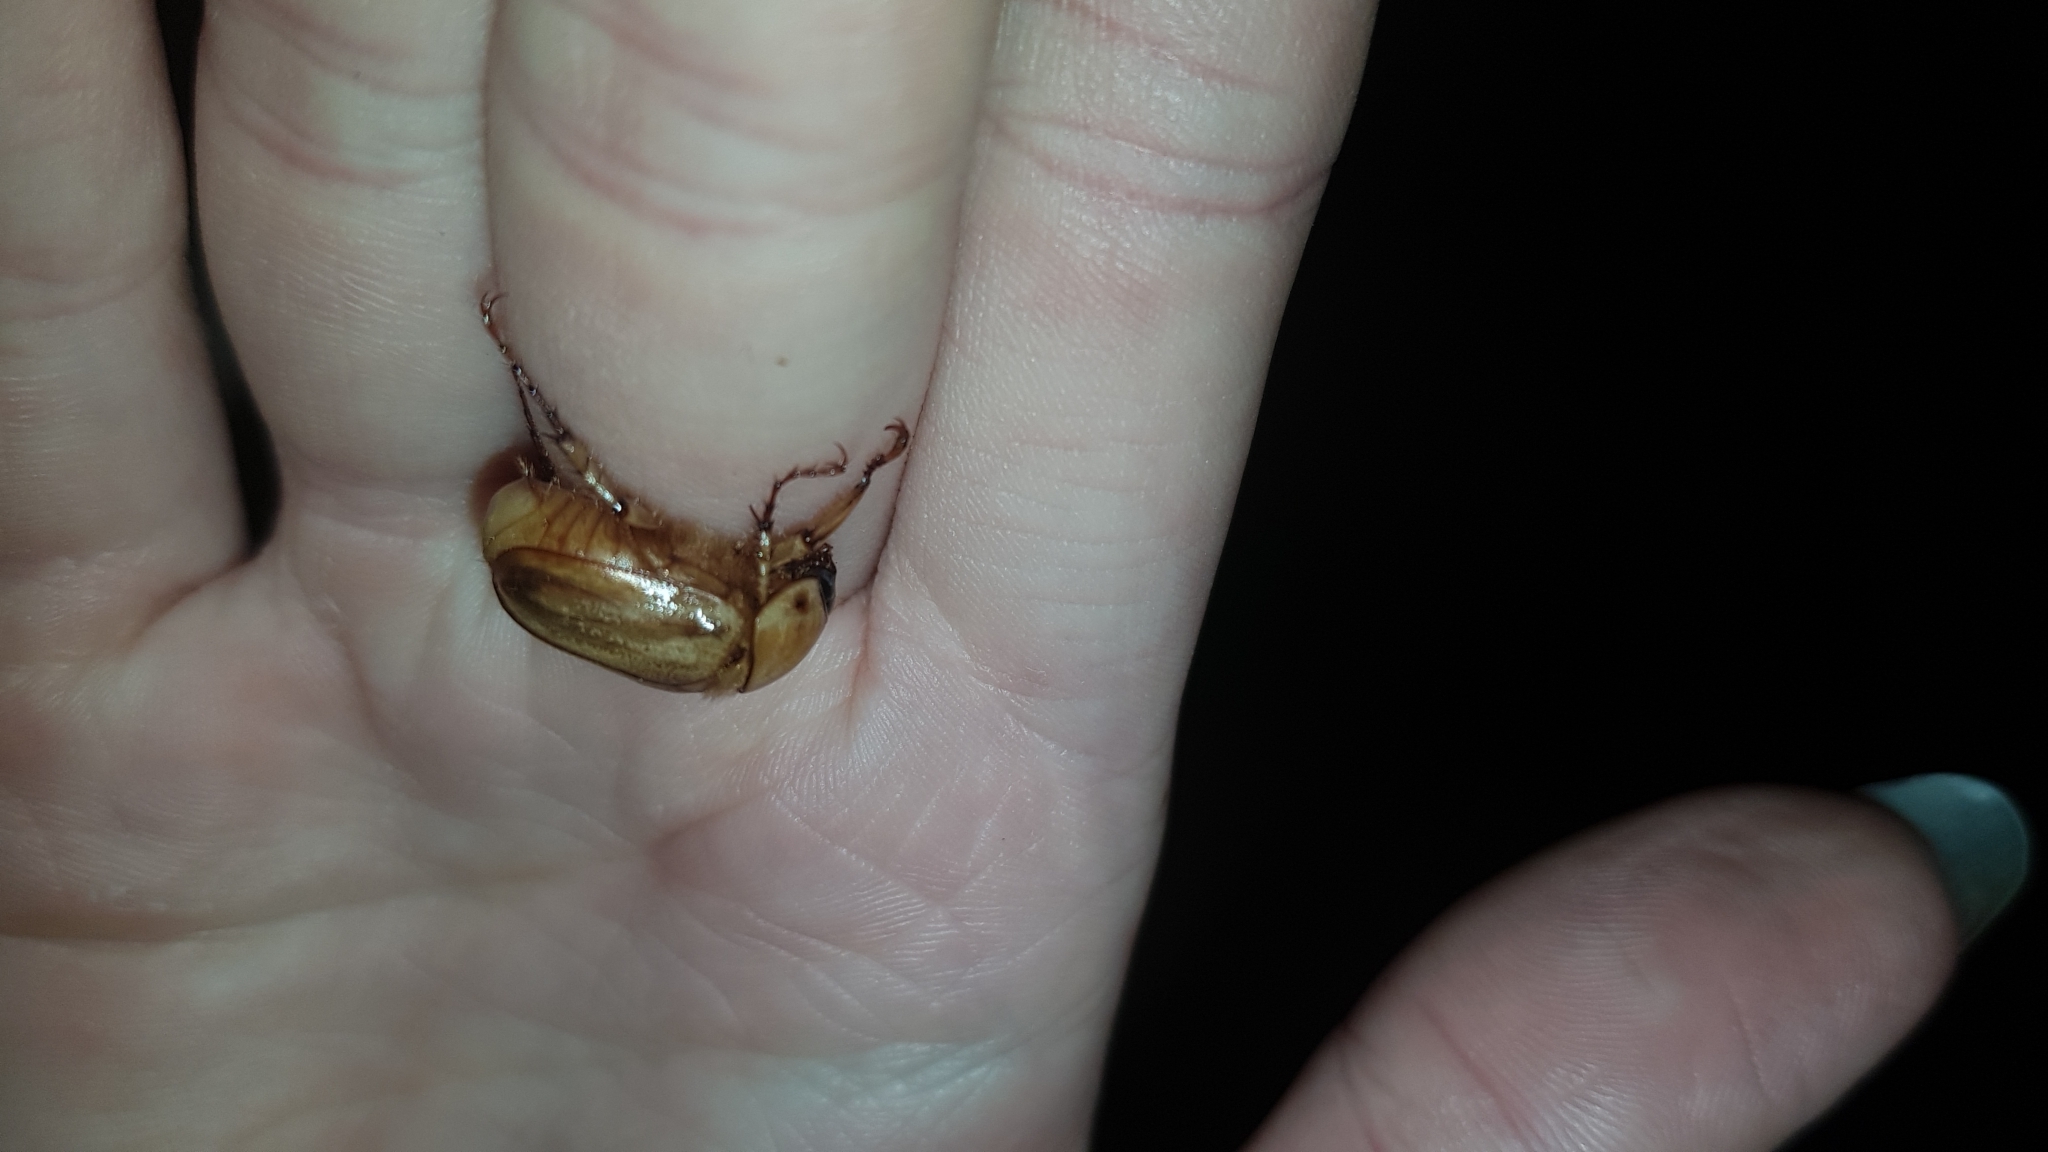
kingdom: Animalia
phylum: Arthropoda
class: Insecta
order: Coleoptera
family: Scarabaeidae
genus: Cyclocephala
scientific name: Cyclocephala signaticollis
